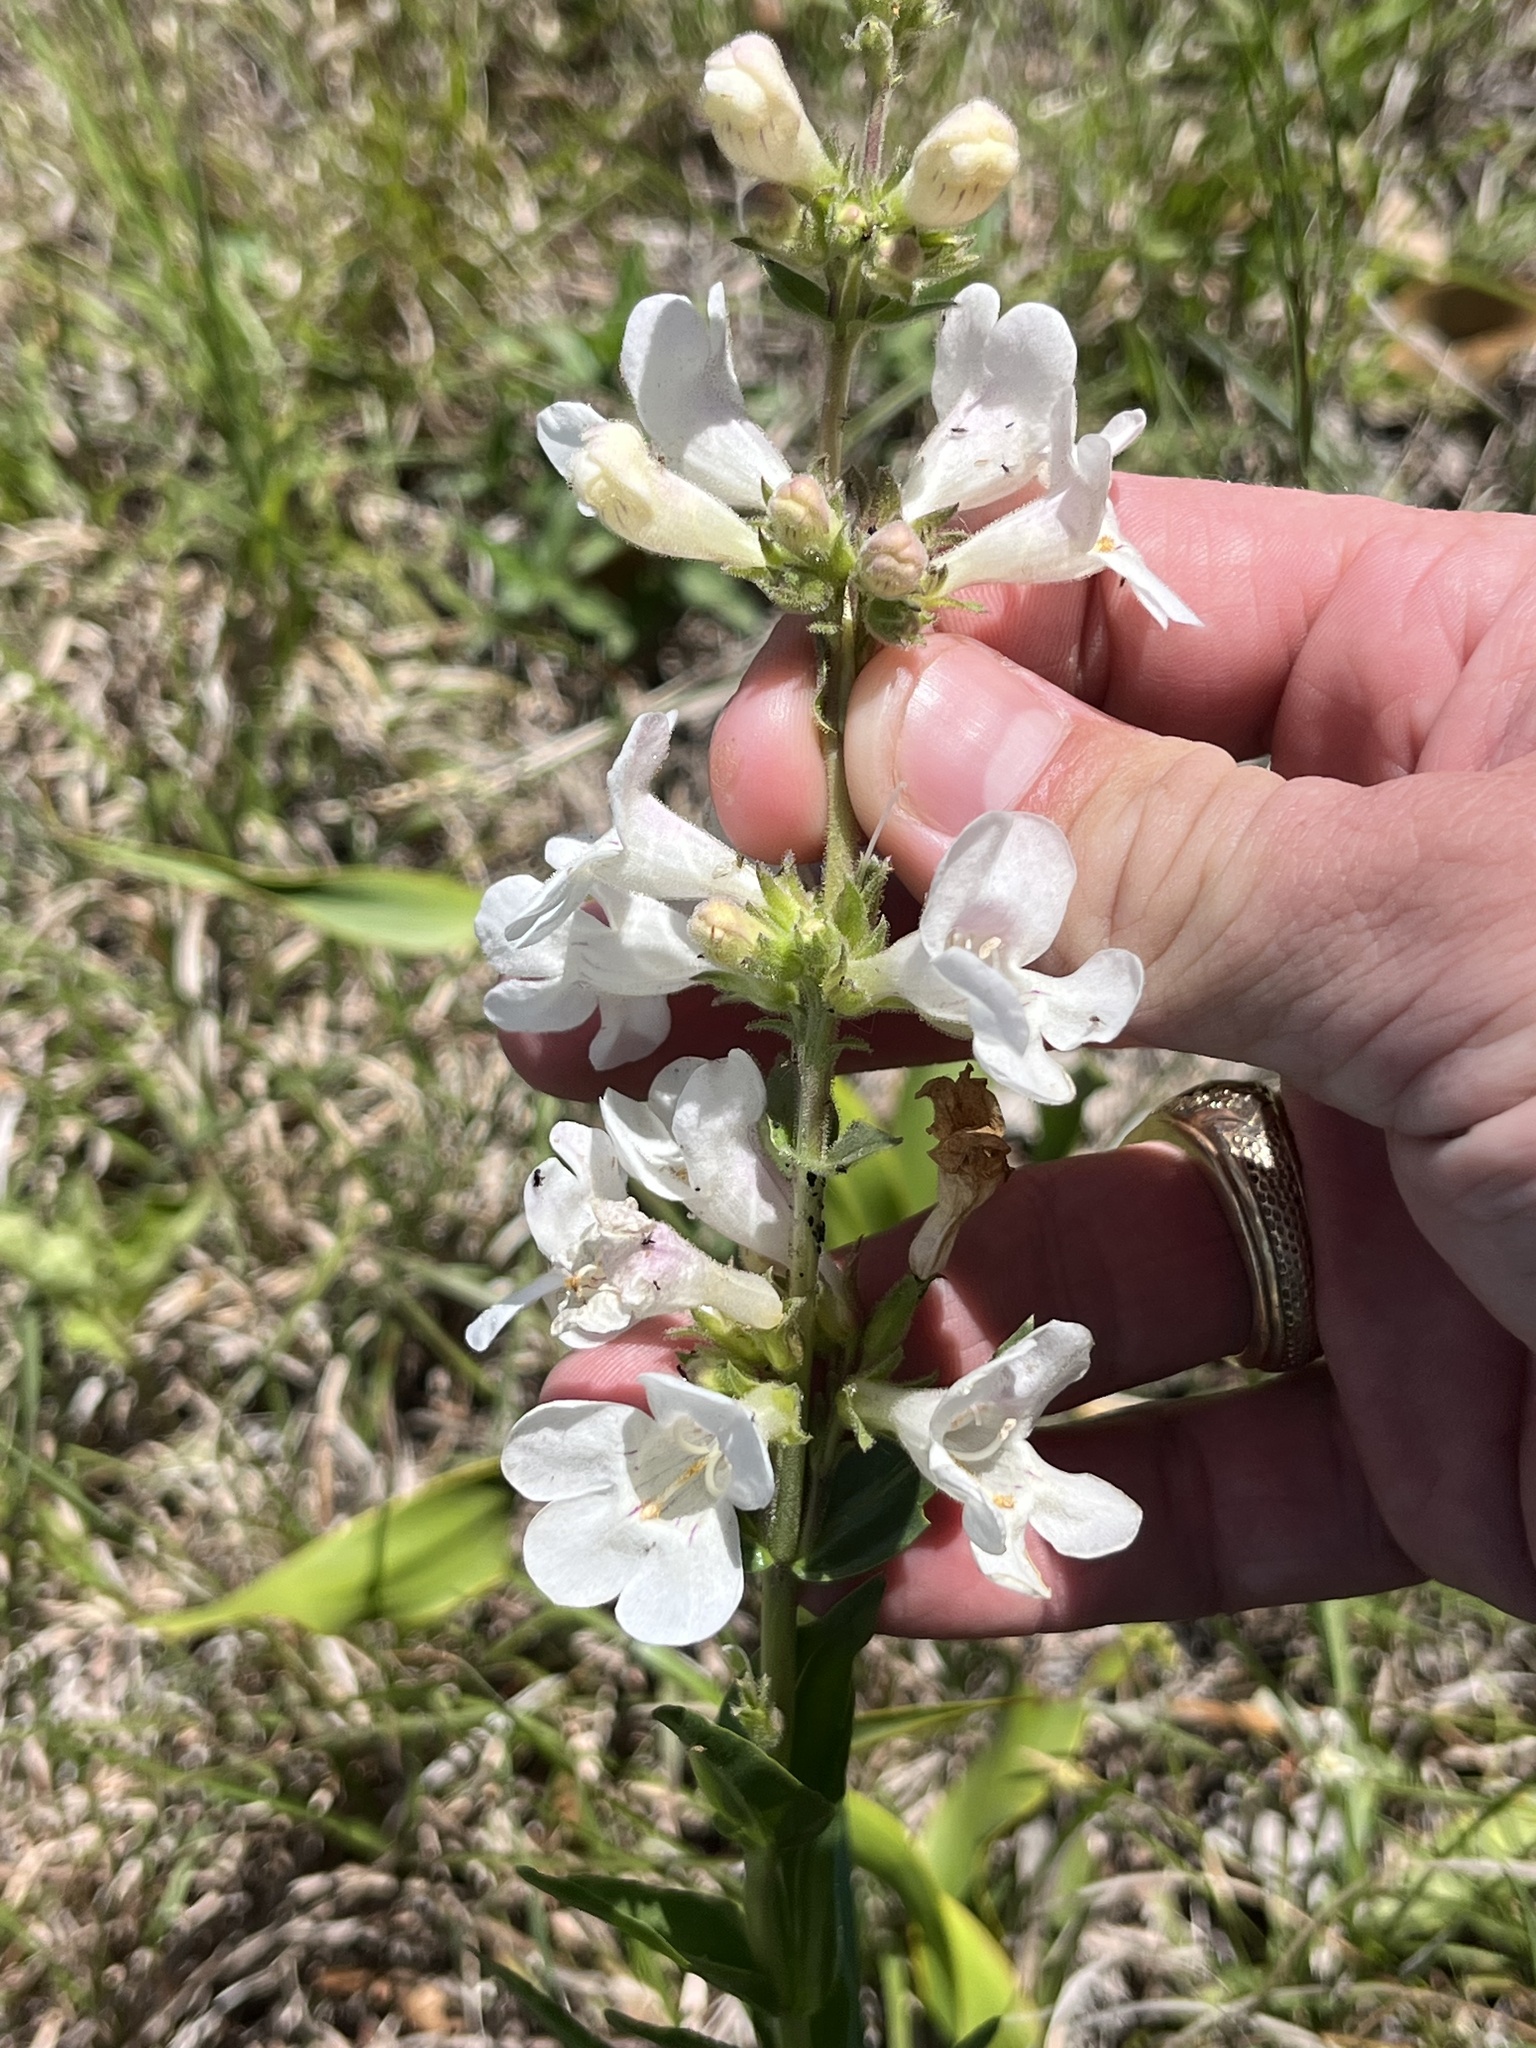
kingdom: Plantae
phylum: Tracheophyta
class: Magnoliopsida
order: Lamiales
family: Plantaginaceae
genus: Penstemon
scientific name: Penstemon guadalupensis
